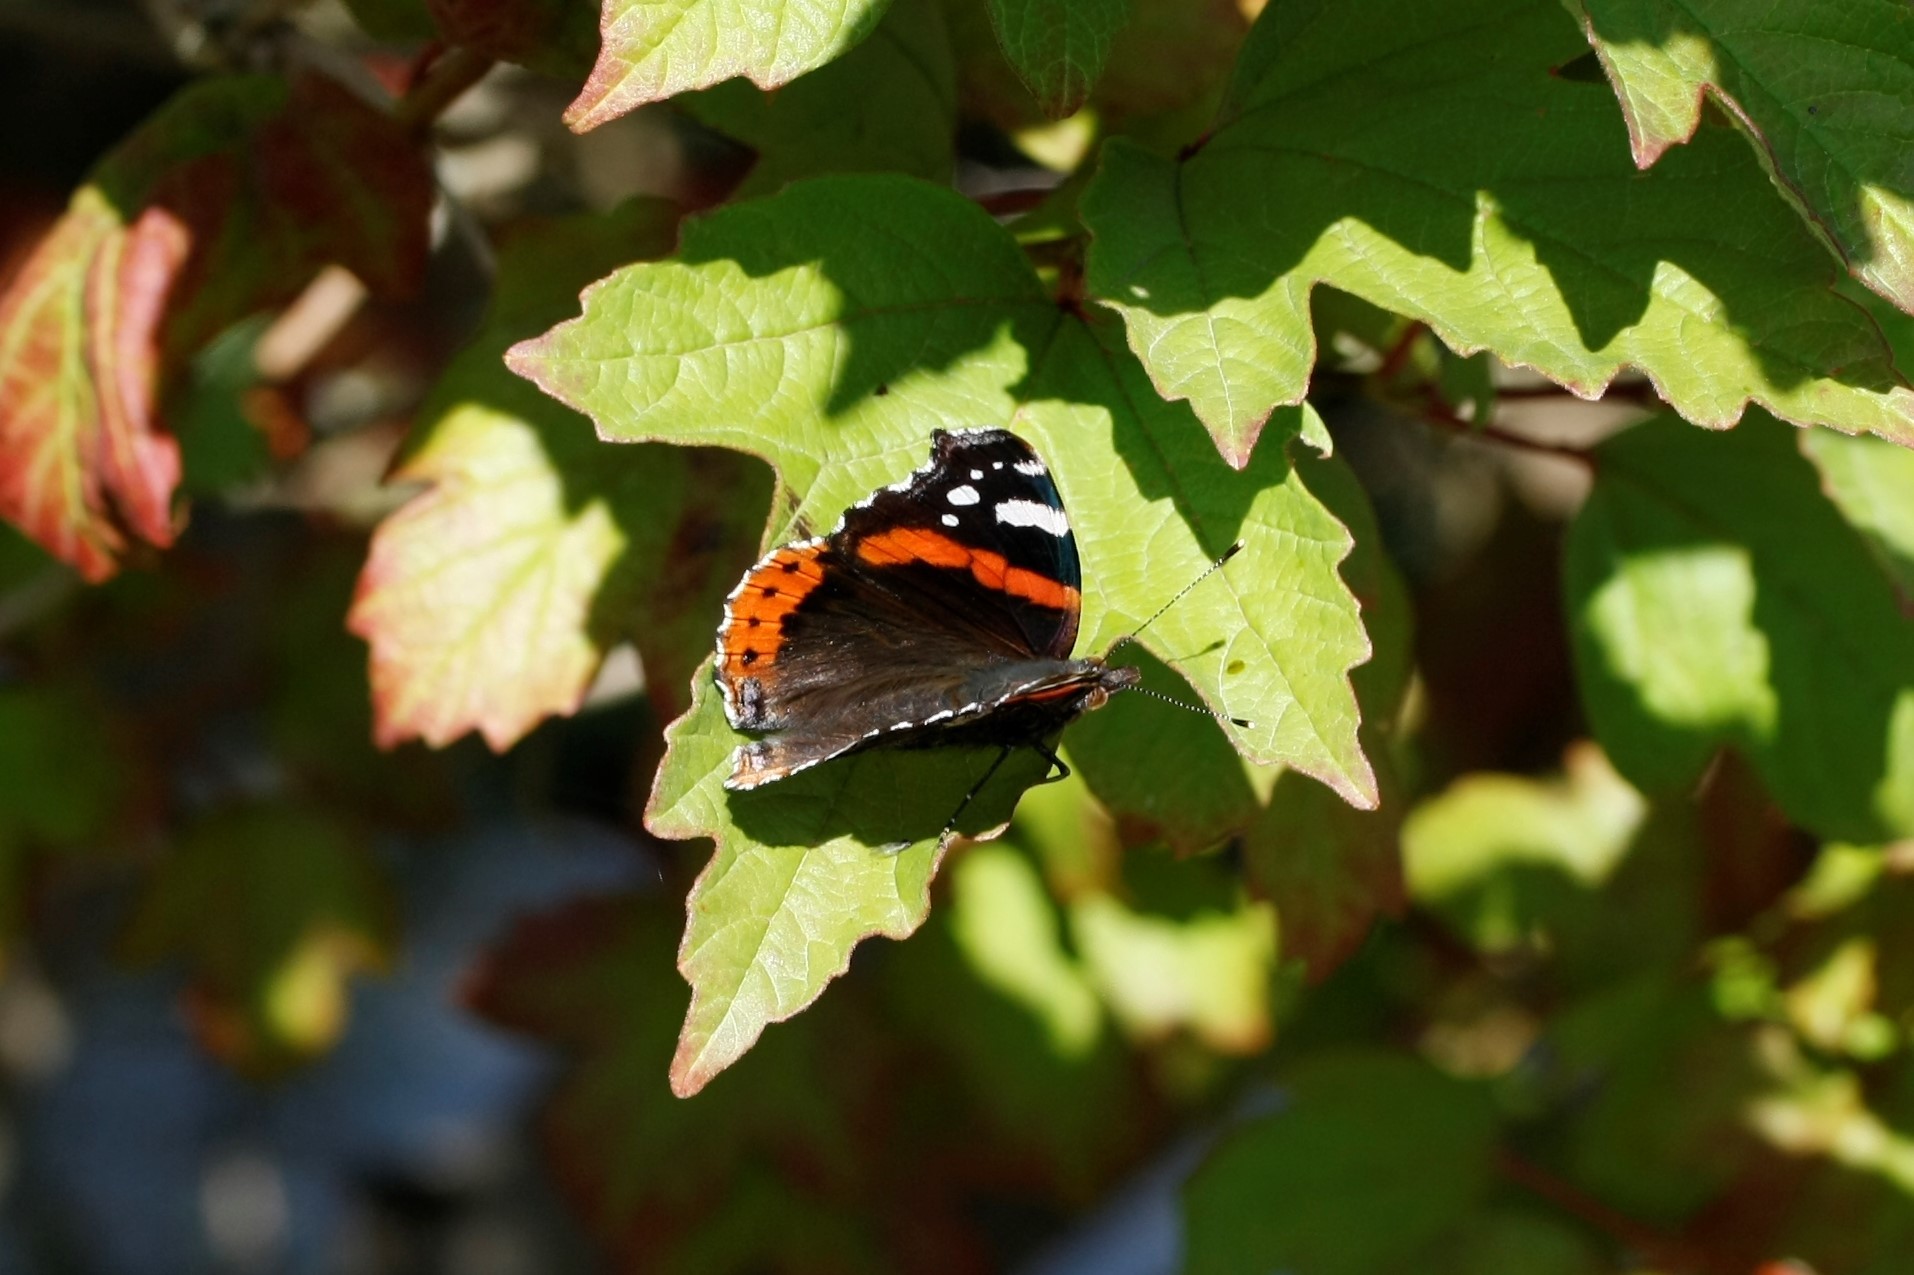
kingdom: Animalia
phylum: Arthropoda
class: Insecta
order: Lepidoptera
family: Nymphalidae
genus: Vanessa
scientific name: Vanessa atalanta
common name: Red admiral
